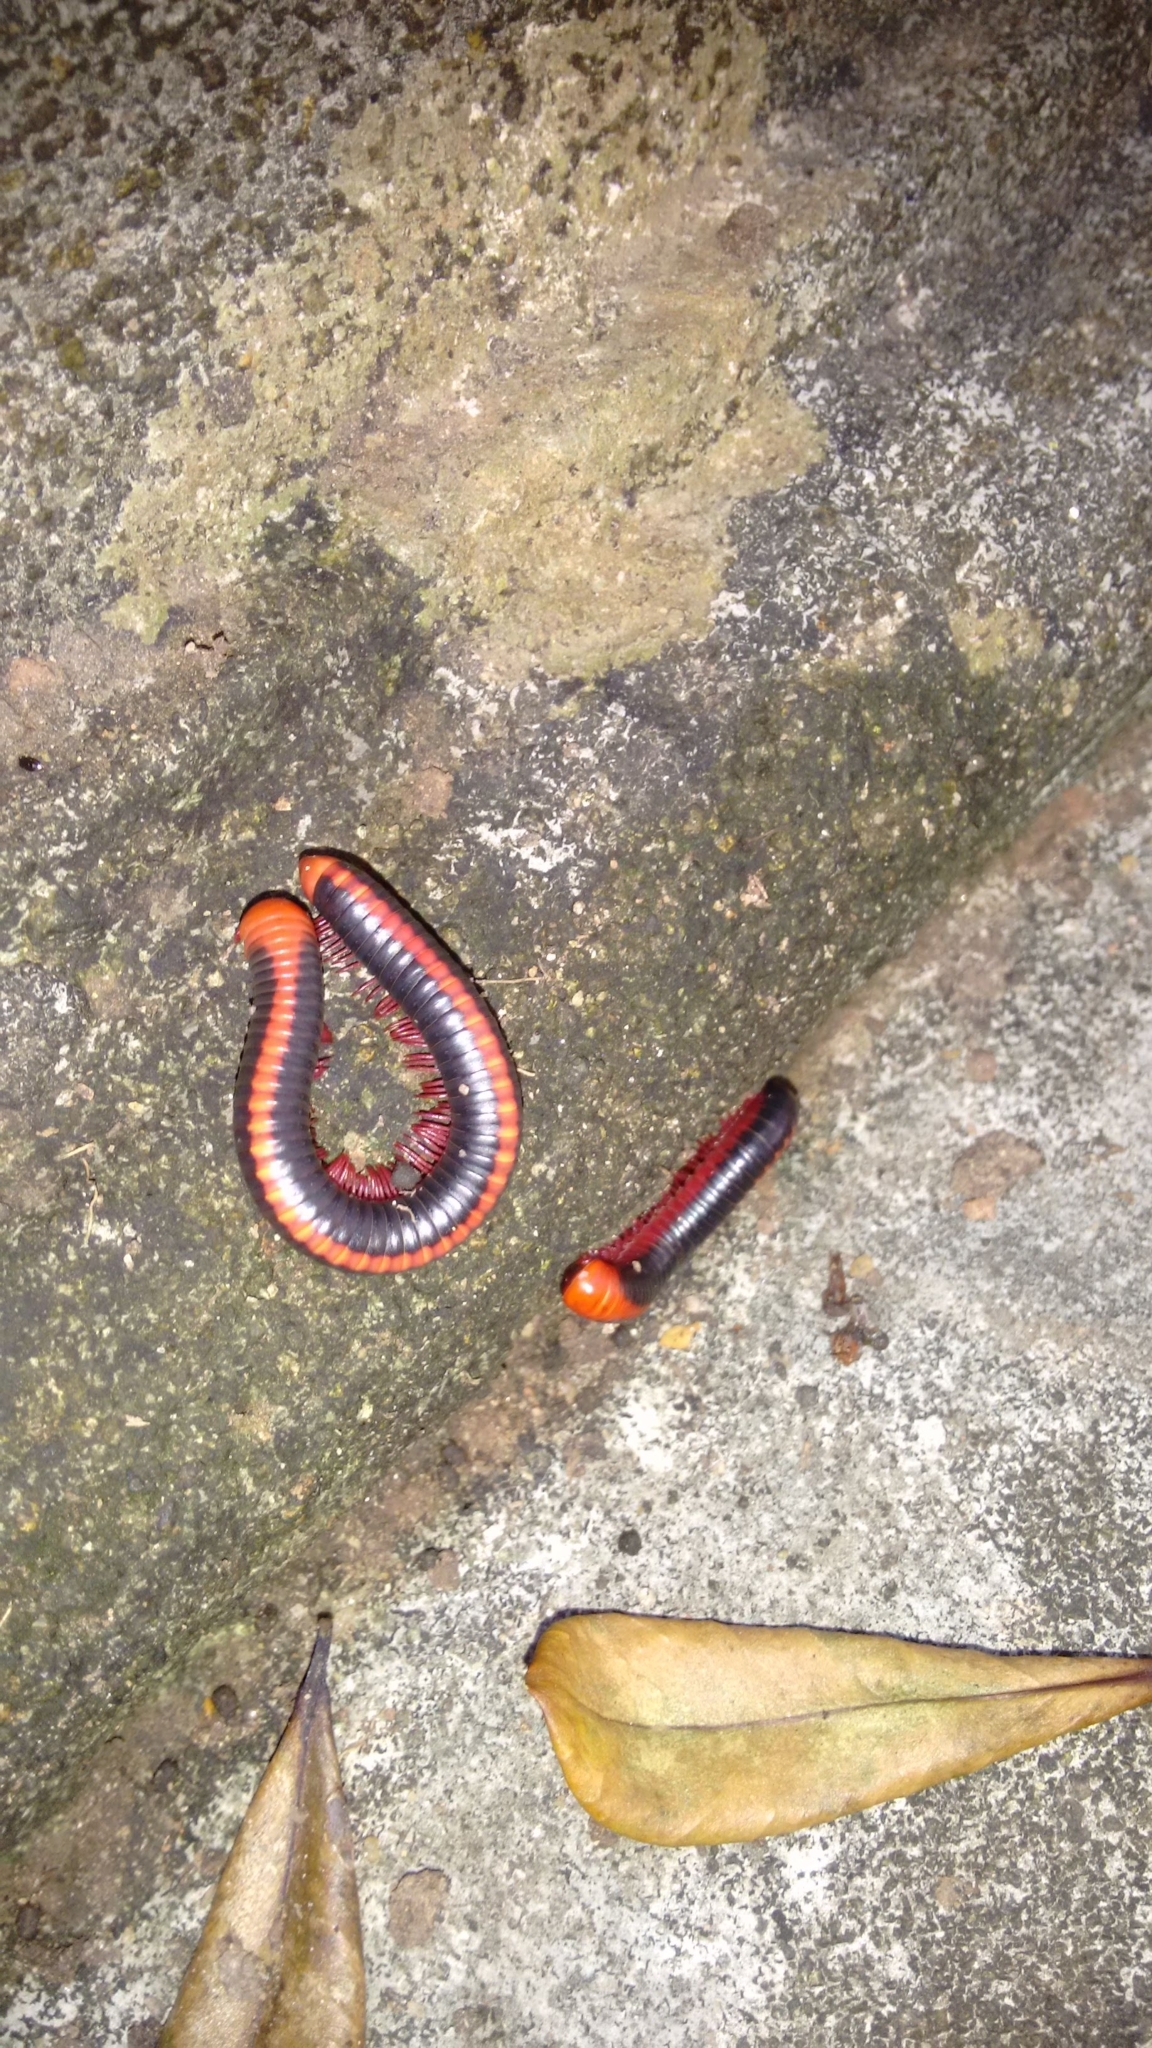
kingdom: Animalia
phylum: Arthropoda
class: Diplopoda
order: Spirobolida
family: Pachybolidae
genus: Xenobolus
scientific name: Xenobolus carnifex
